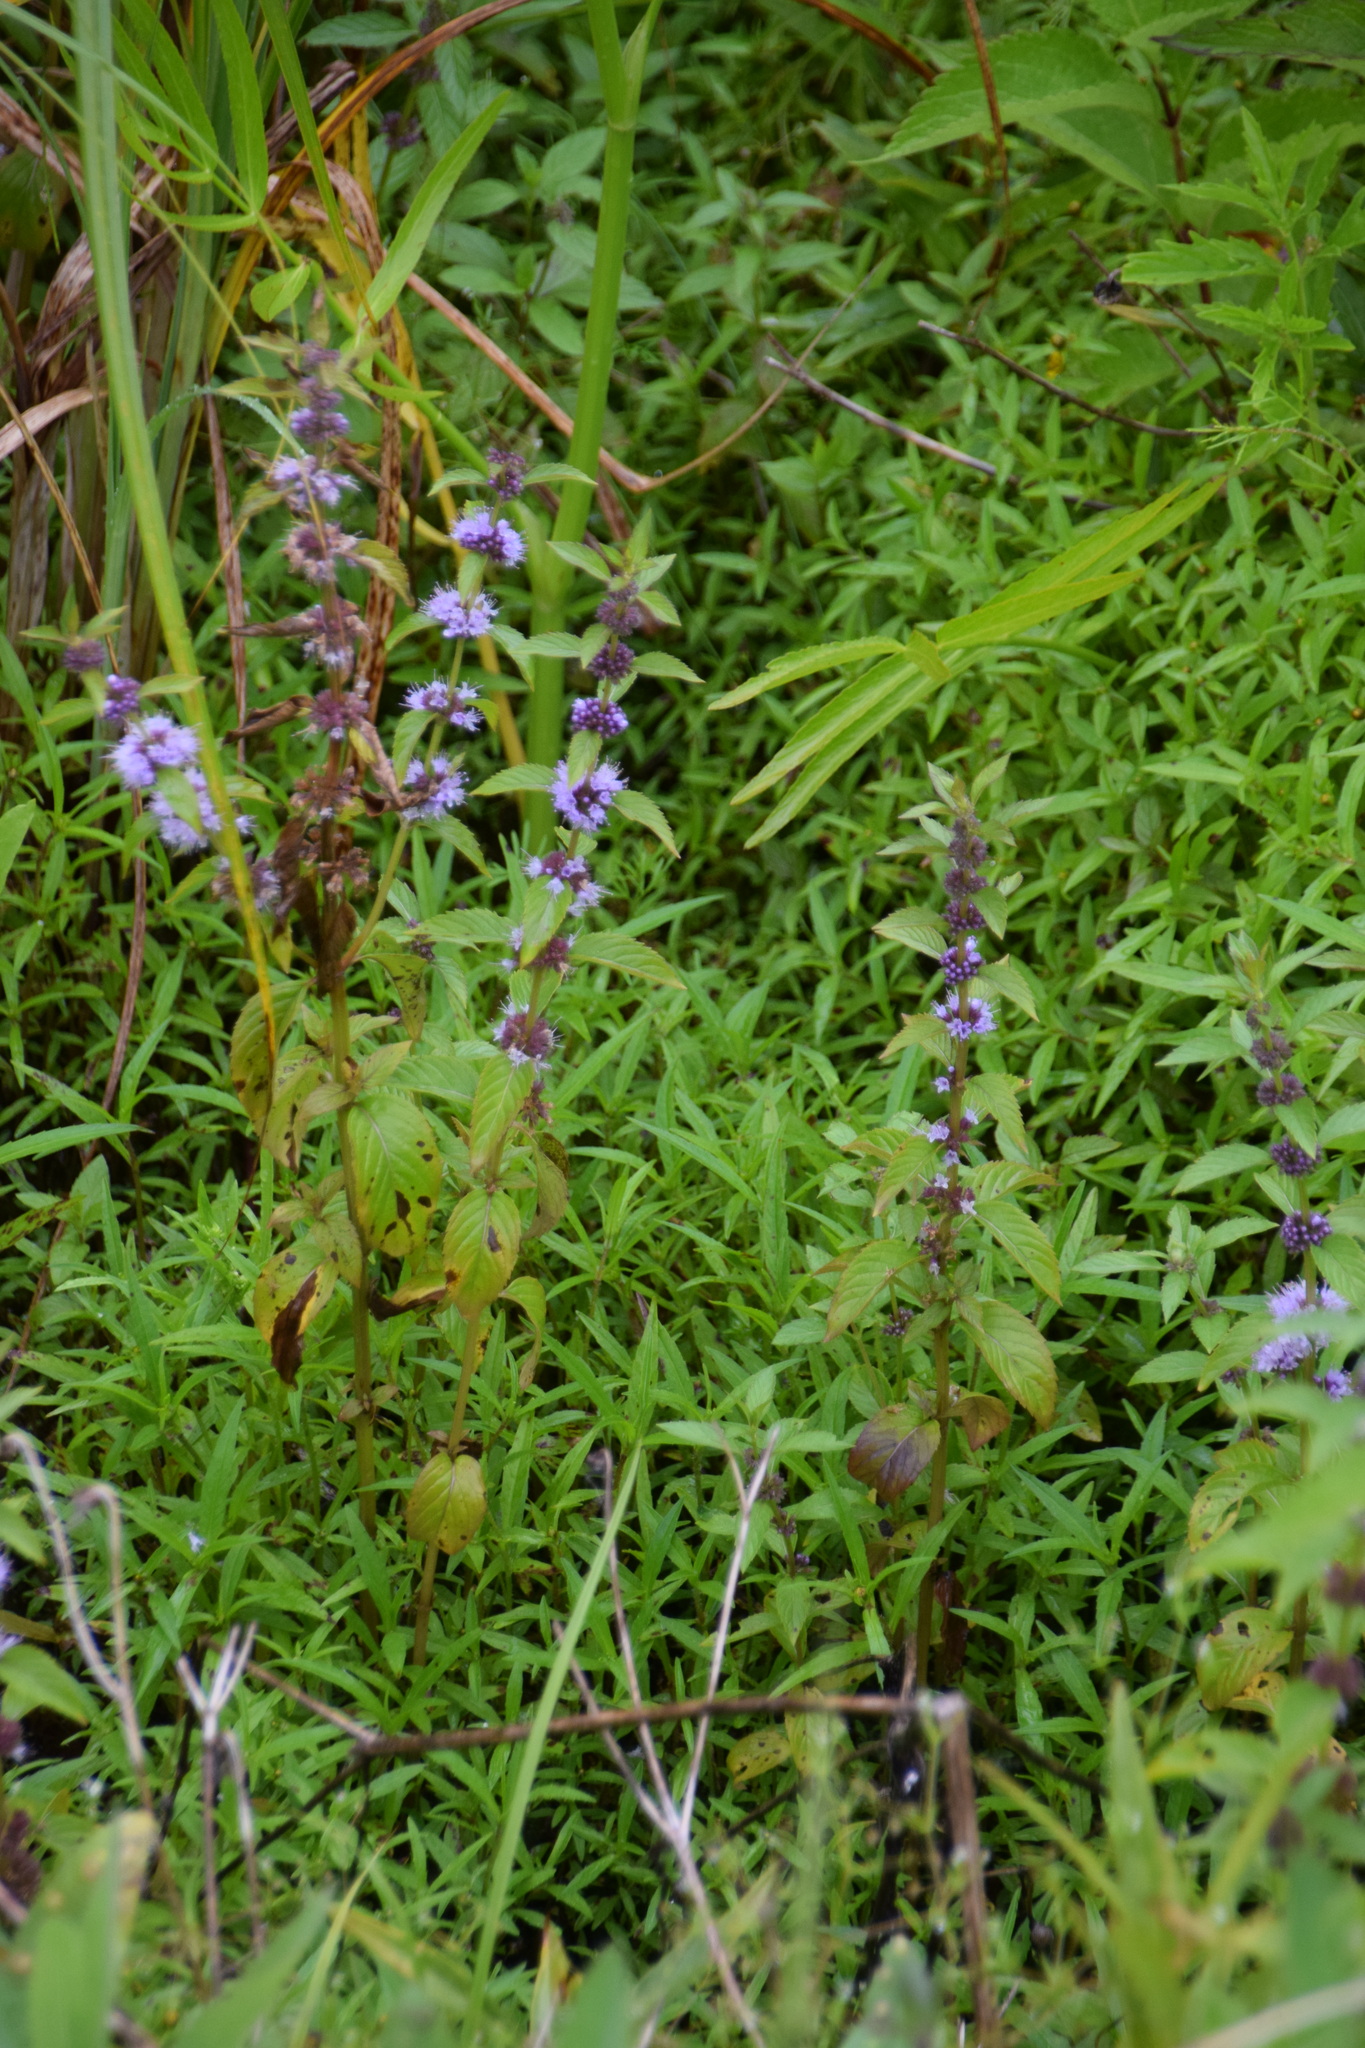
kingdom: Plantae
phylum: Tracheophyta
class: Magnoliopsida
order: Lamiales
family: Lamiaceae
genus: Mentha
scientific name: Mentha canadensis
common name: American corn mint
